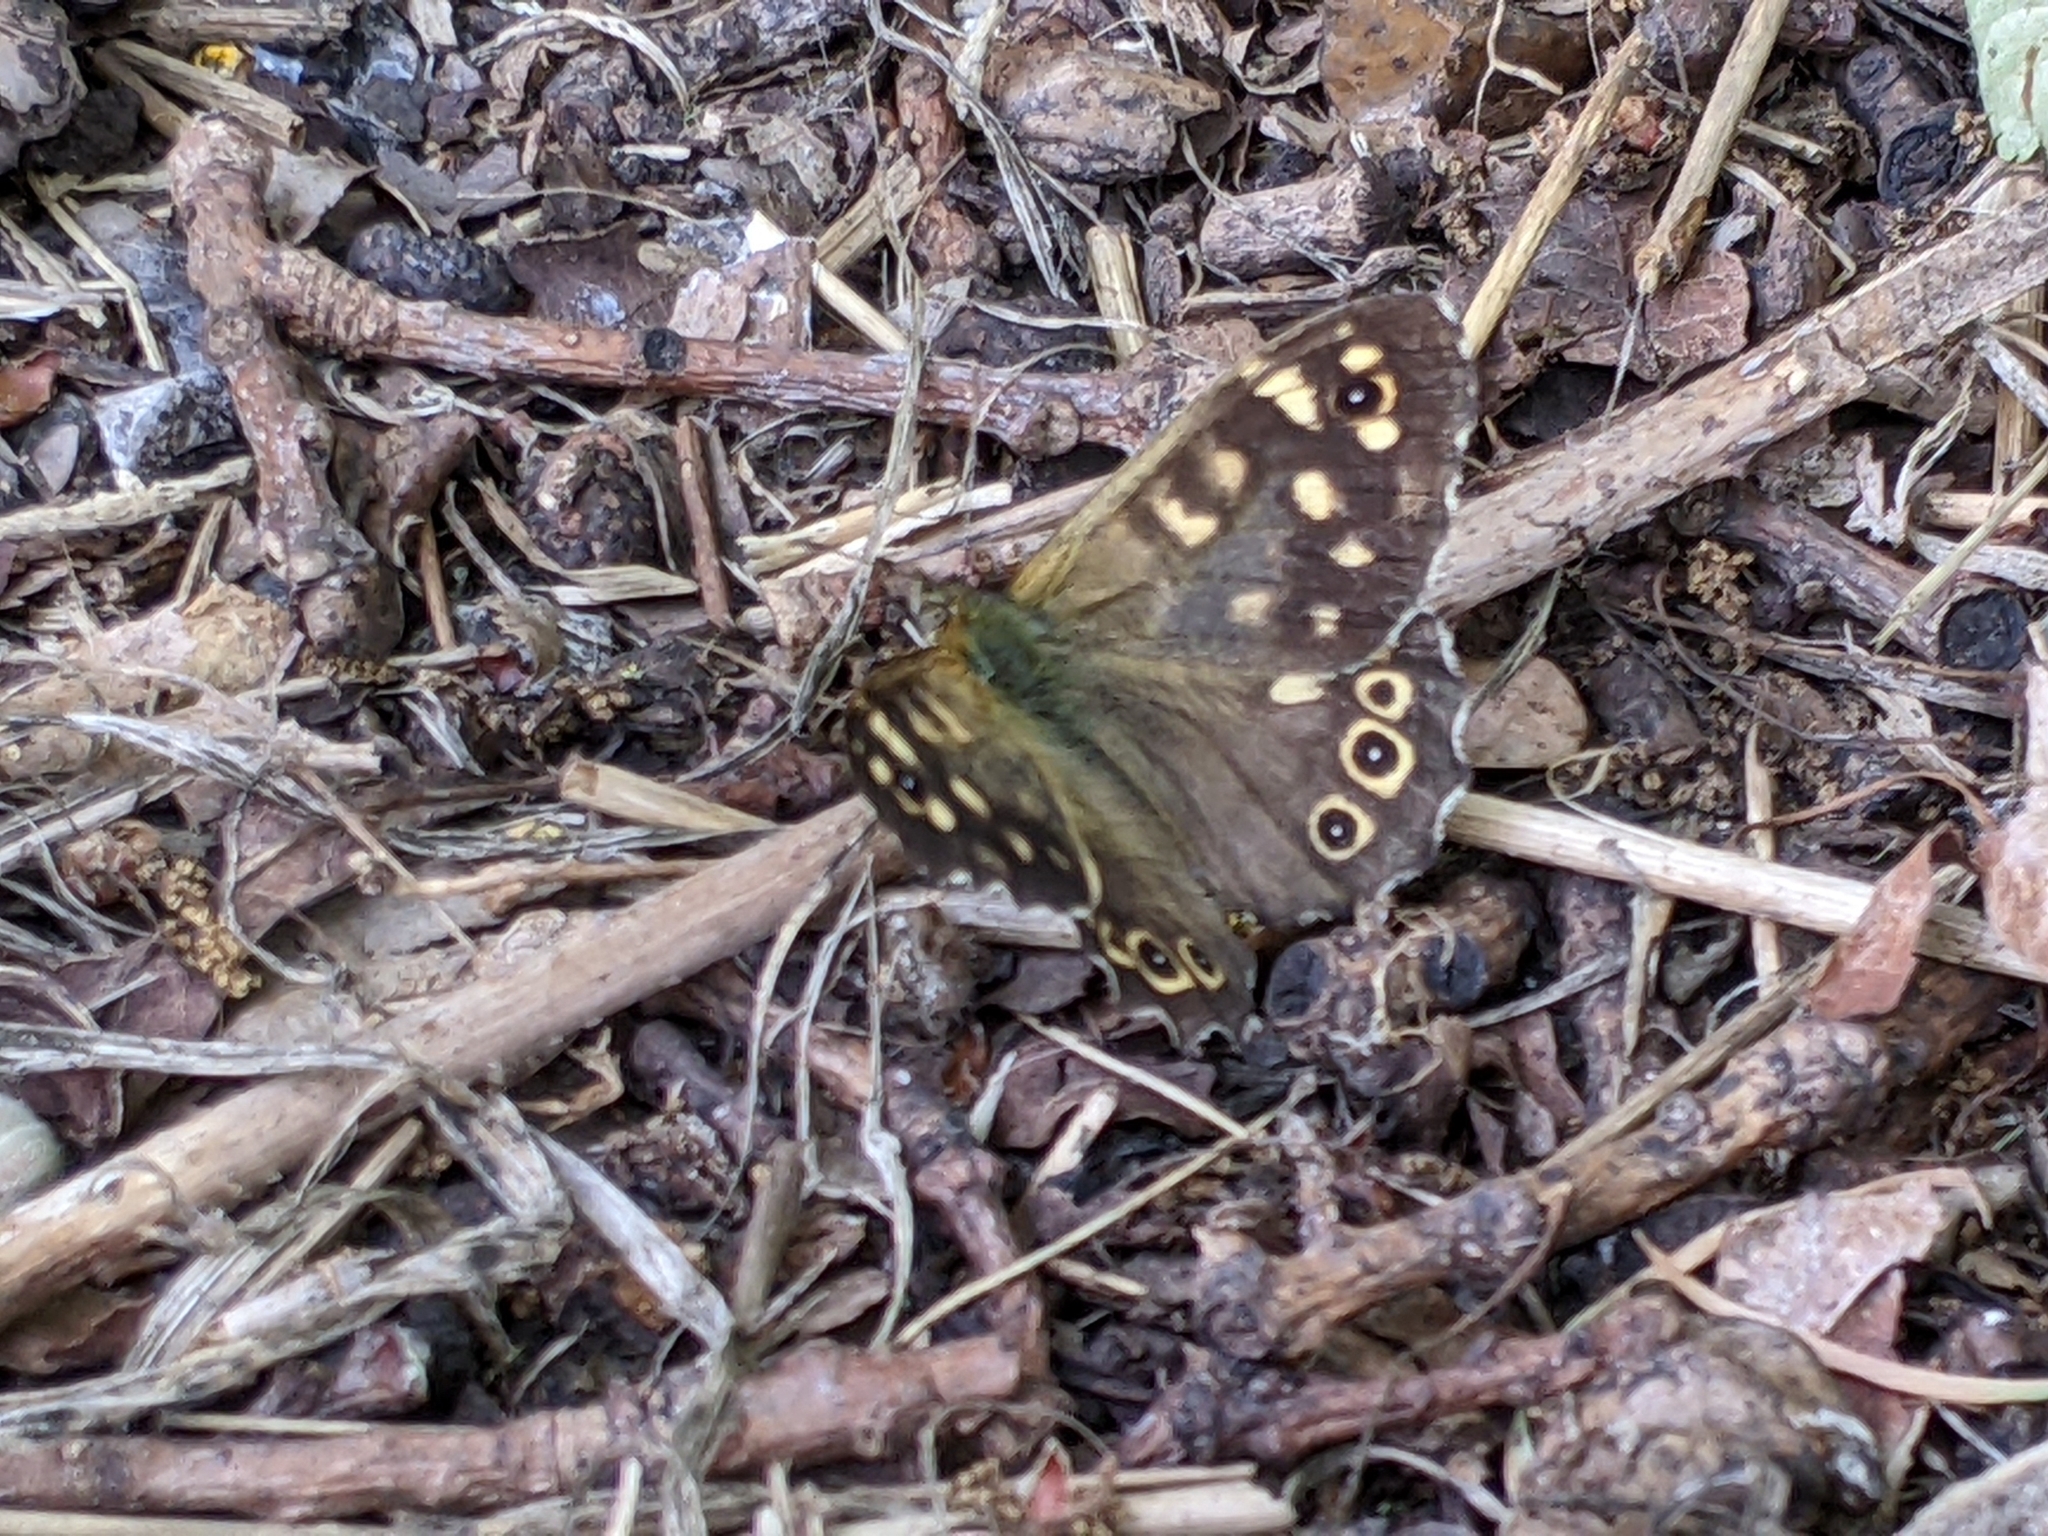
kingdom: Animalia
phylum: Arthropoda
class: Insecta
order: Lepidoptera
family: Nymphalidae
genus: Pararge
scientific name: Pararge aegeria
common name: Speckled wood
